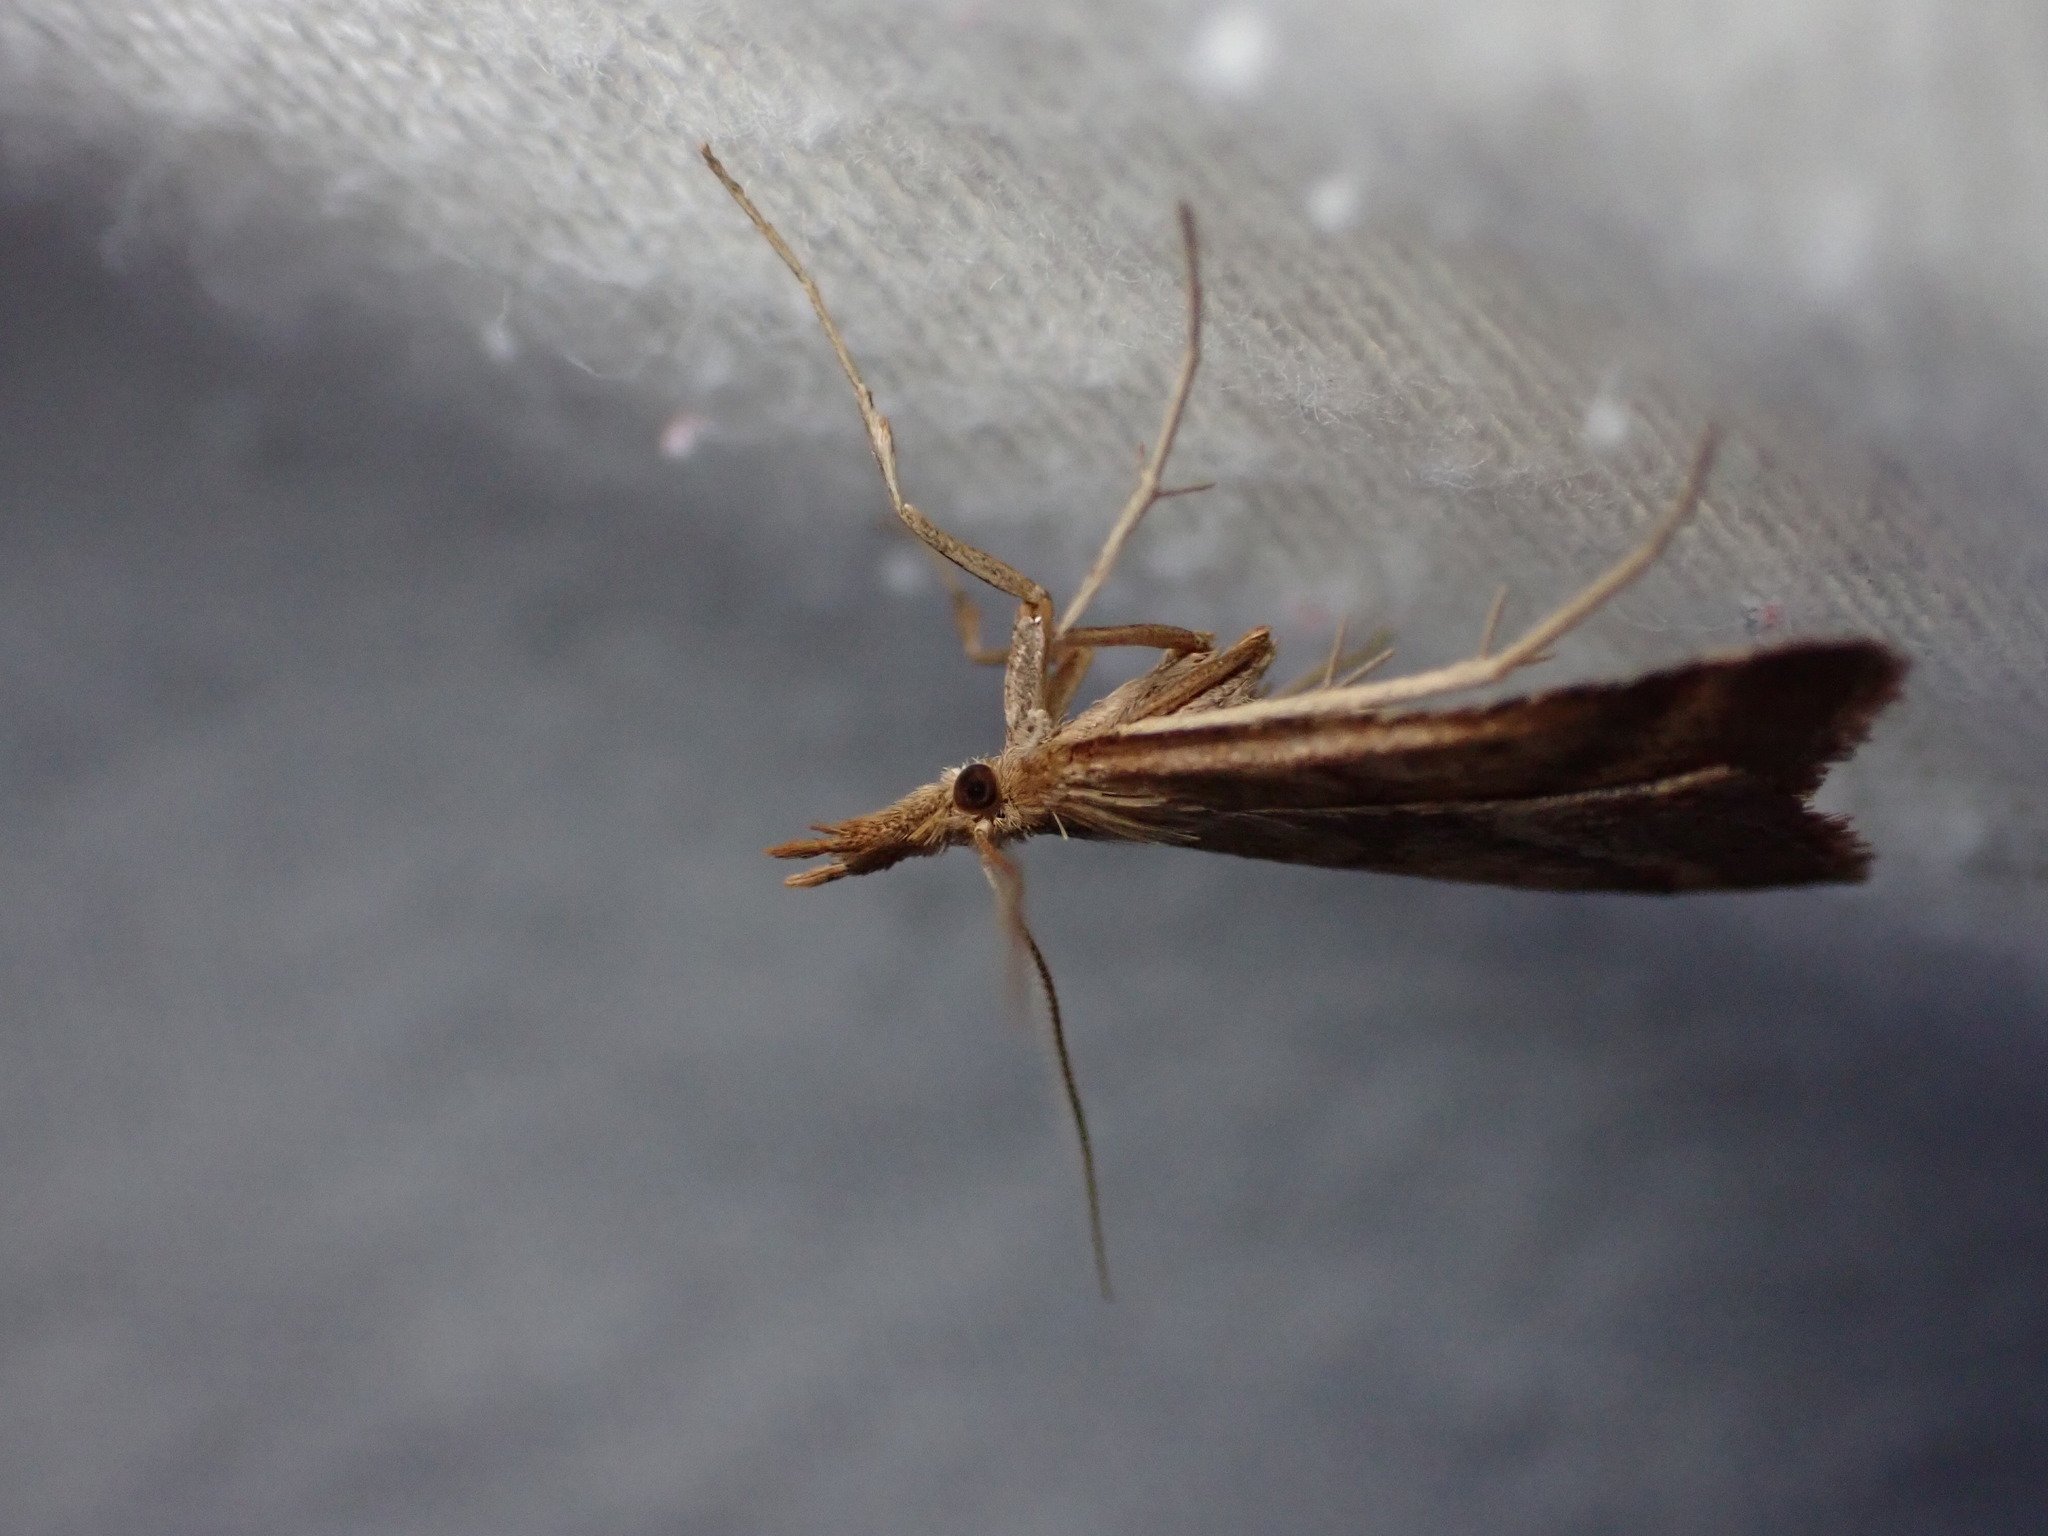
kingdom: Animalia
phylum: Arthropoda
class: Insecta
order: Lepidoptera
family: Pyralidae
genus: Synaphe
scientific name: Synaphe punctalis
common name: Long-legged tabby
